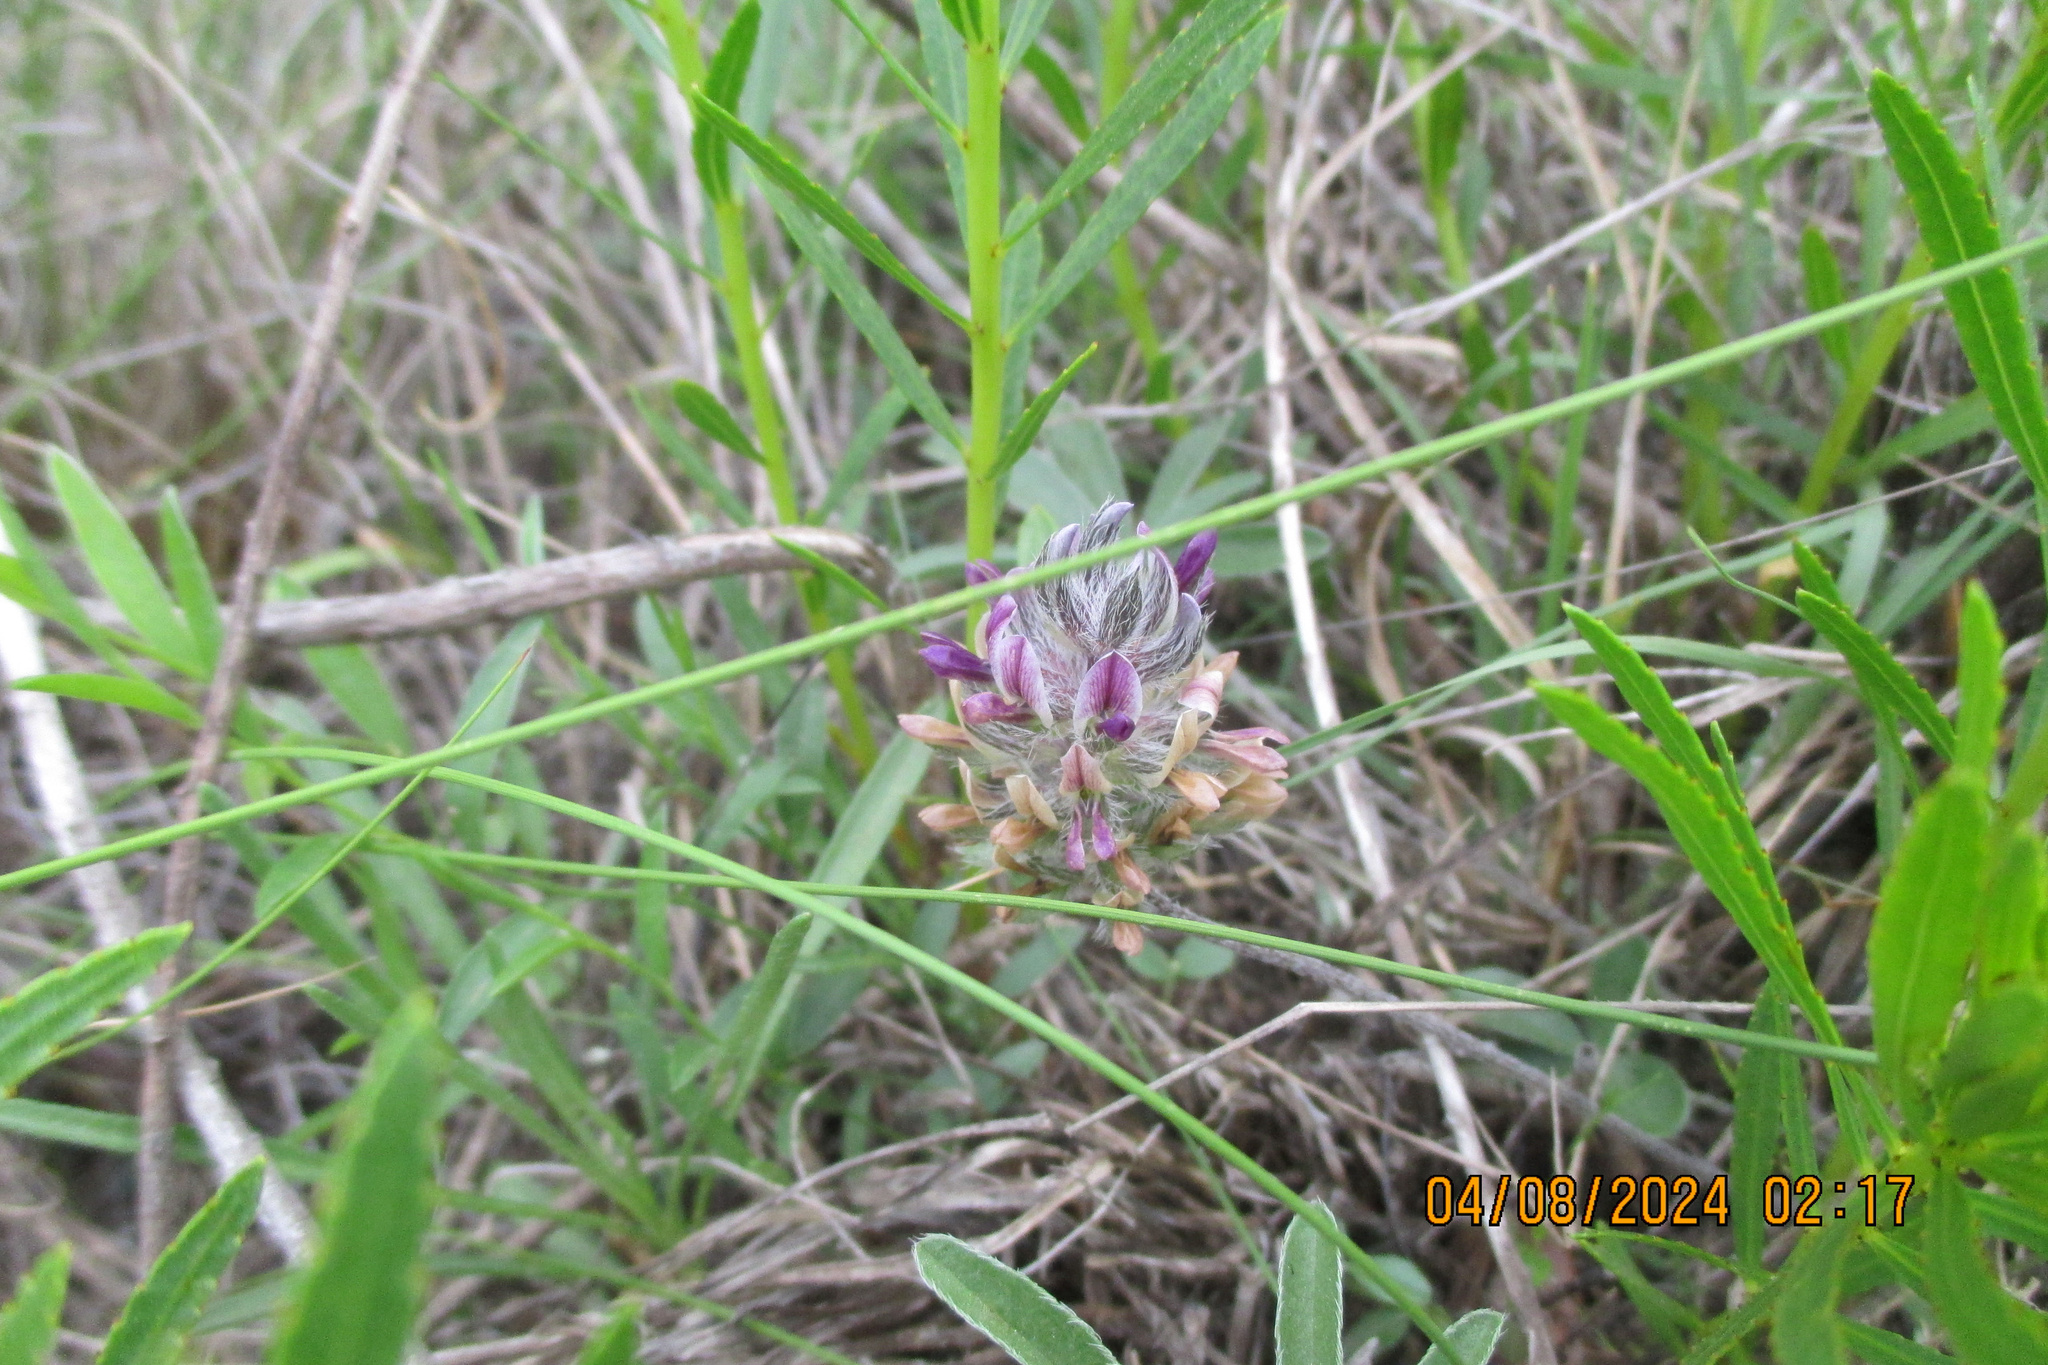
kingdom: Plantae
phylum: Tracheophyta
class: Magnoliopsida
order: Fabales
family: Fabaceae
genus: Pediomelum
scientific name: Pediomelum hypogaeum
